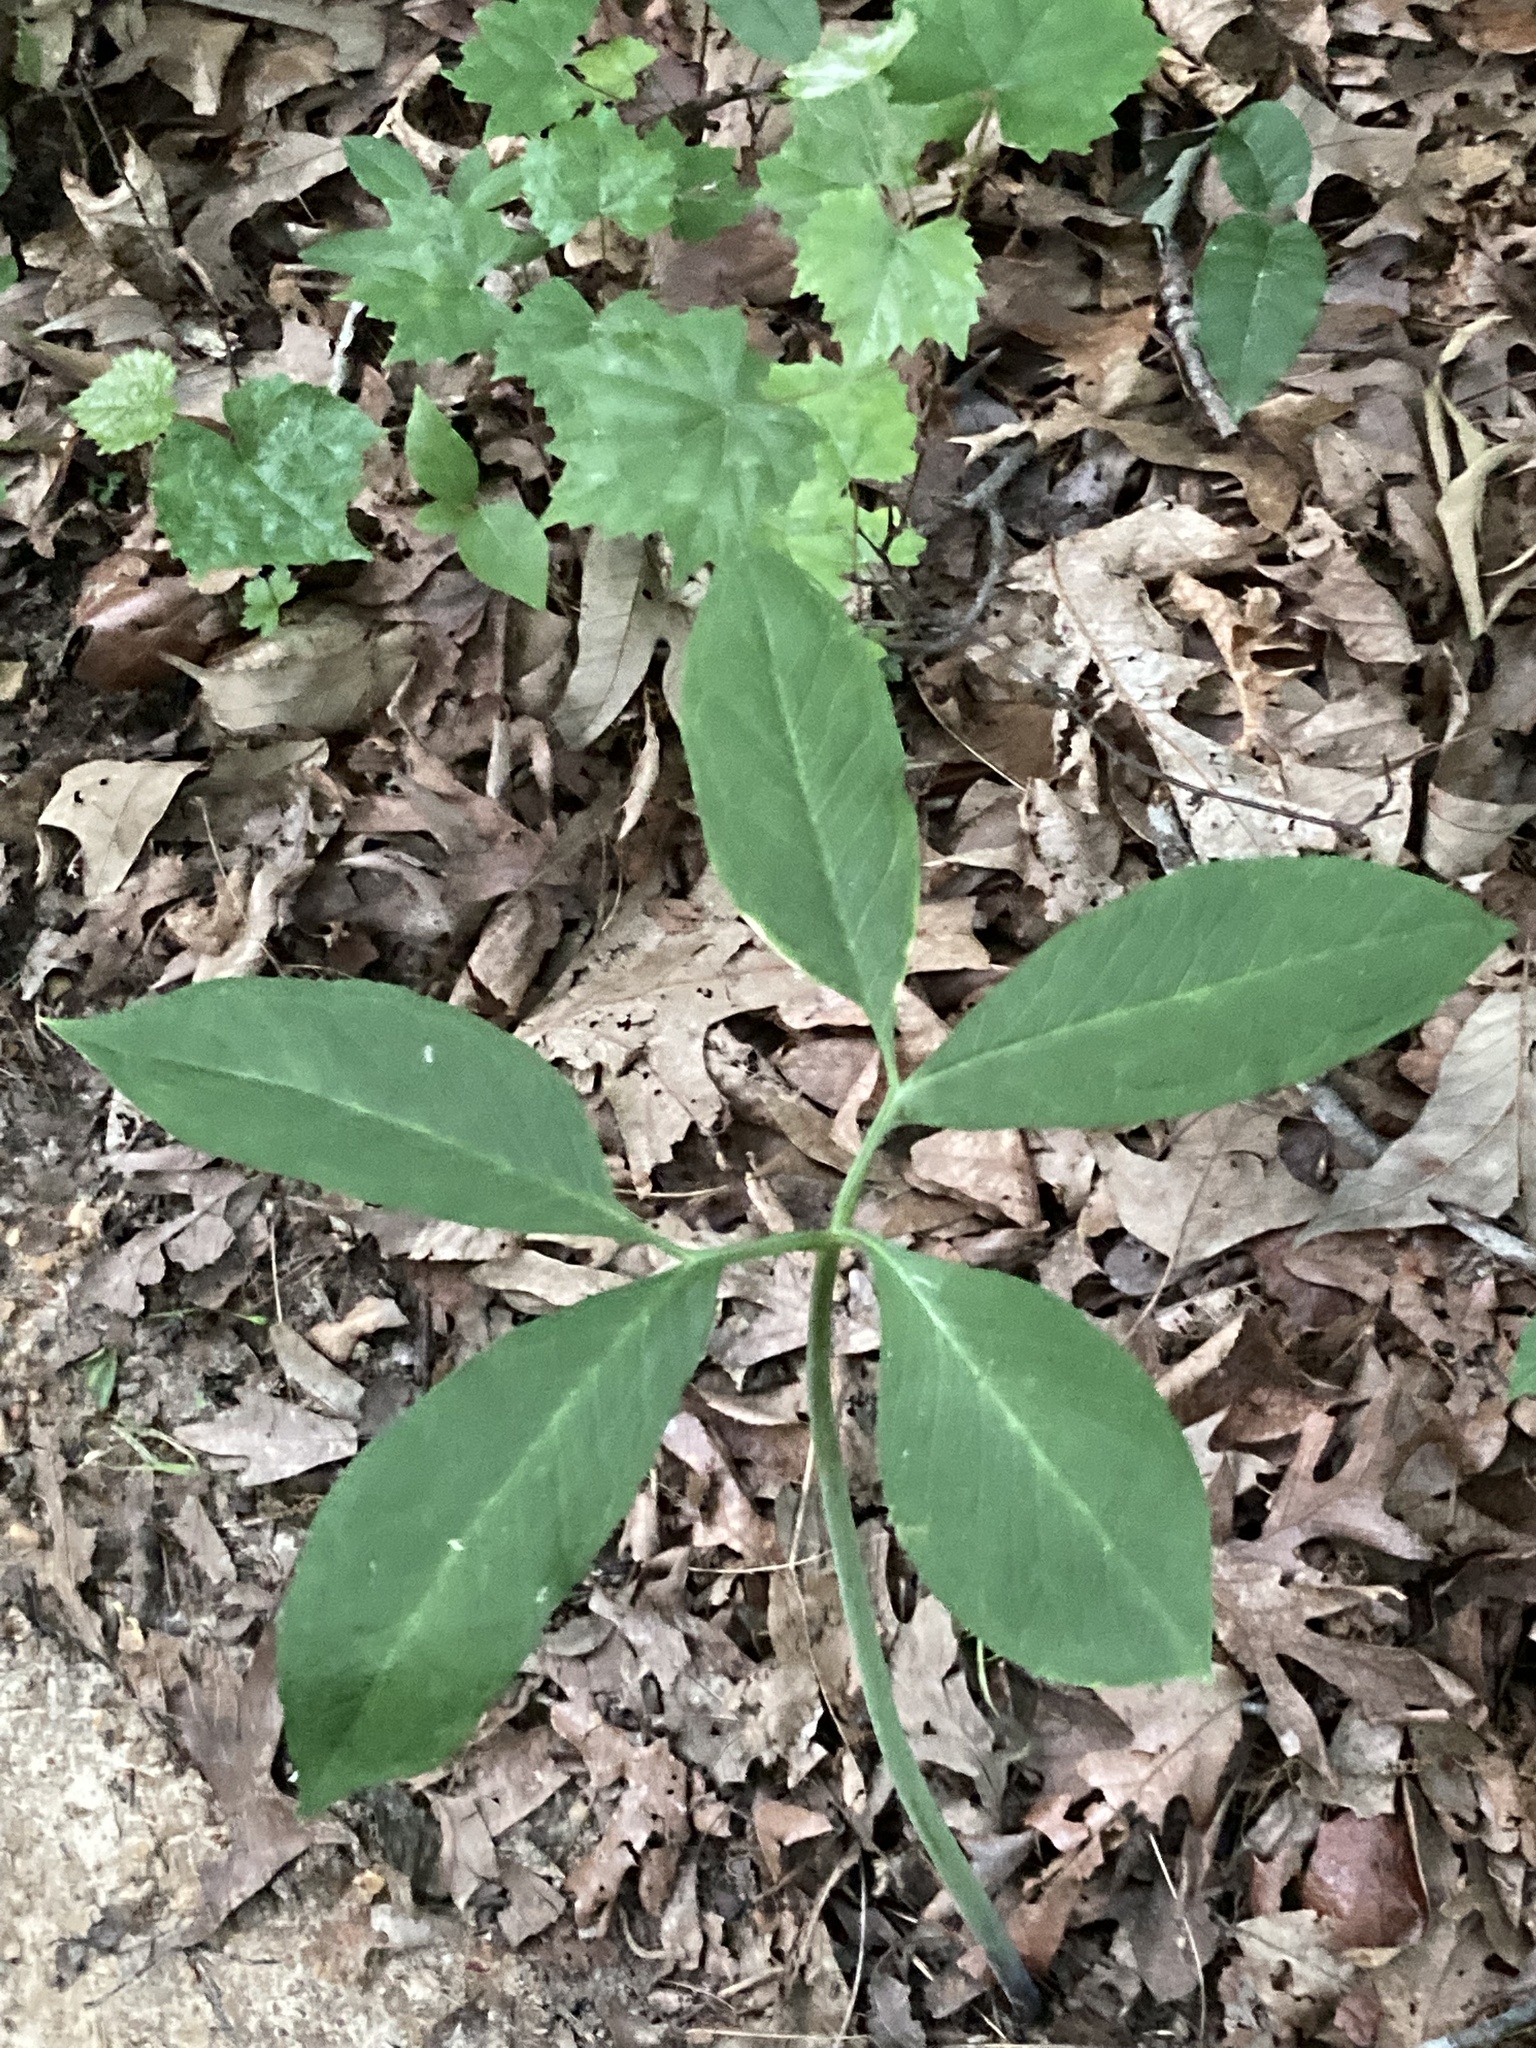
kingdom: Plantae
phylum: Tracheophyta
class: Liliopsida
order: Alismatales
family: Araceae
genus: Arisaema
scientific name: Arisaema dracontium
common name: Dragon-arum
